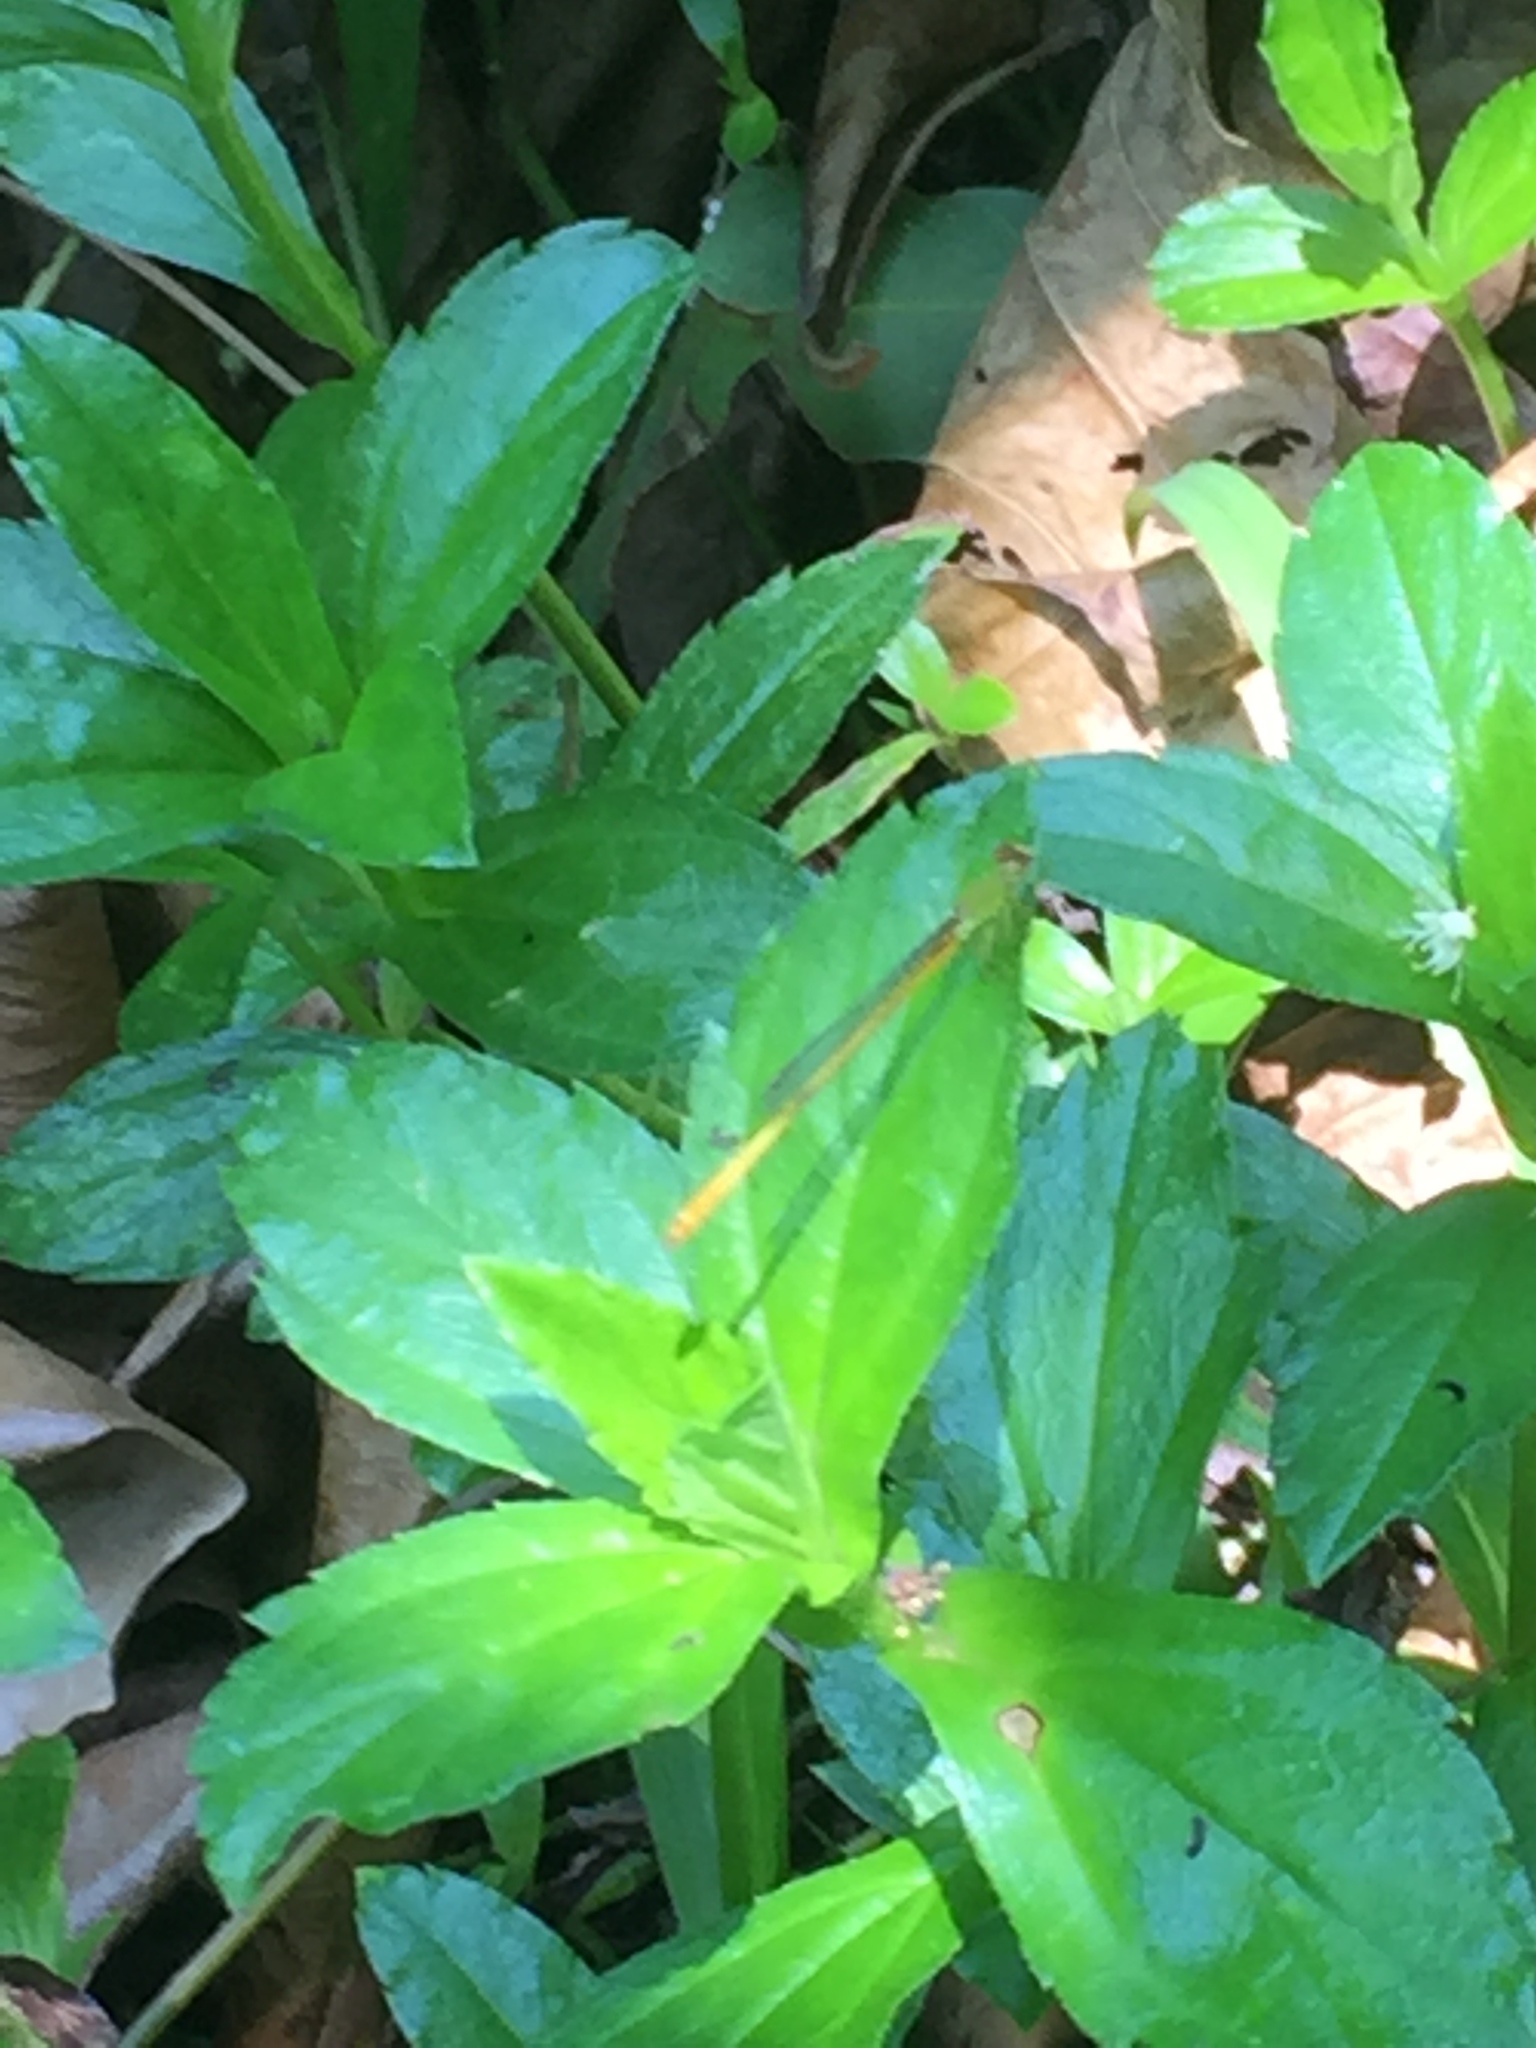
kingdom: Animalia
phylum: Arthropoda
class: Insecta
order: Odonata
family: Coenagrionidae
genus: Ceriagrion
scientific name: Ceriagrion coromandelianum
